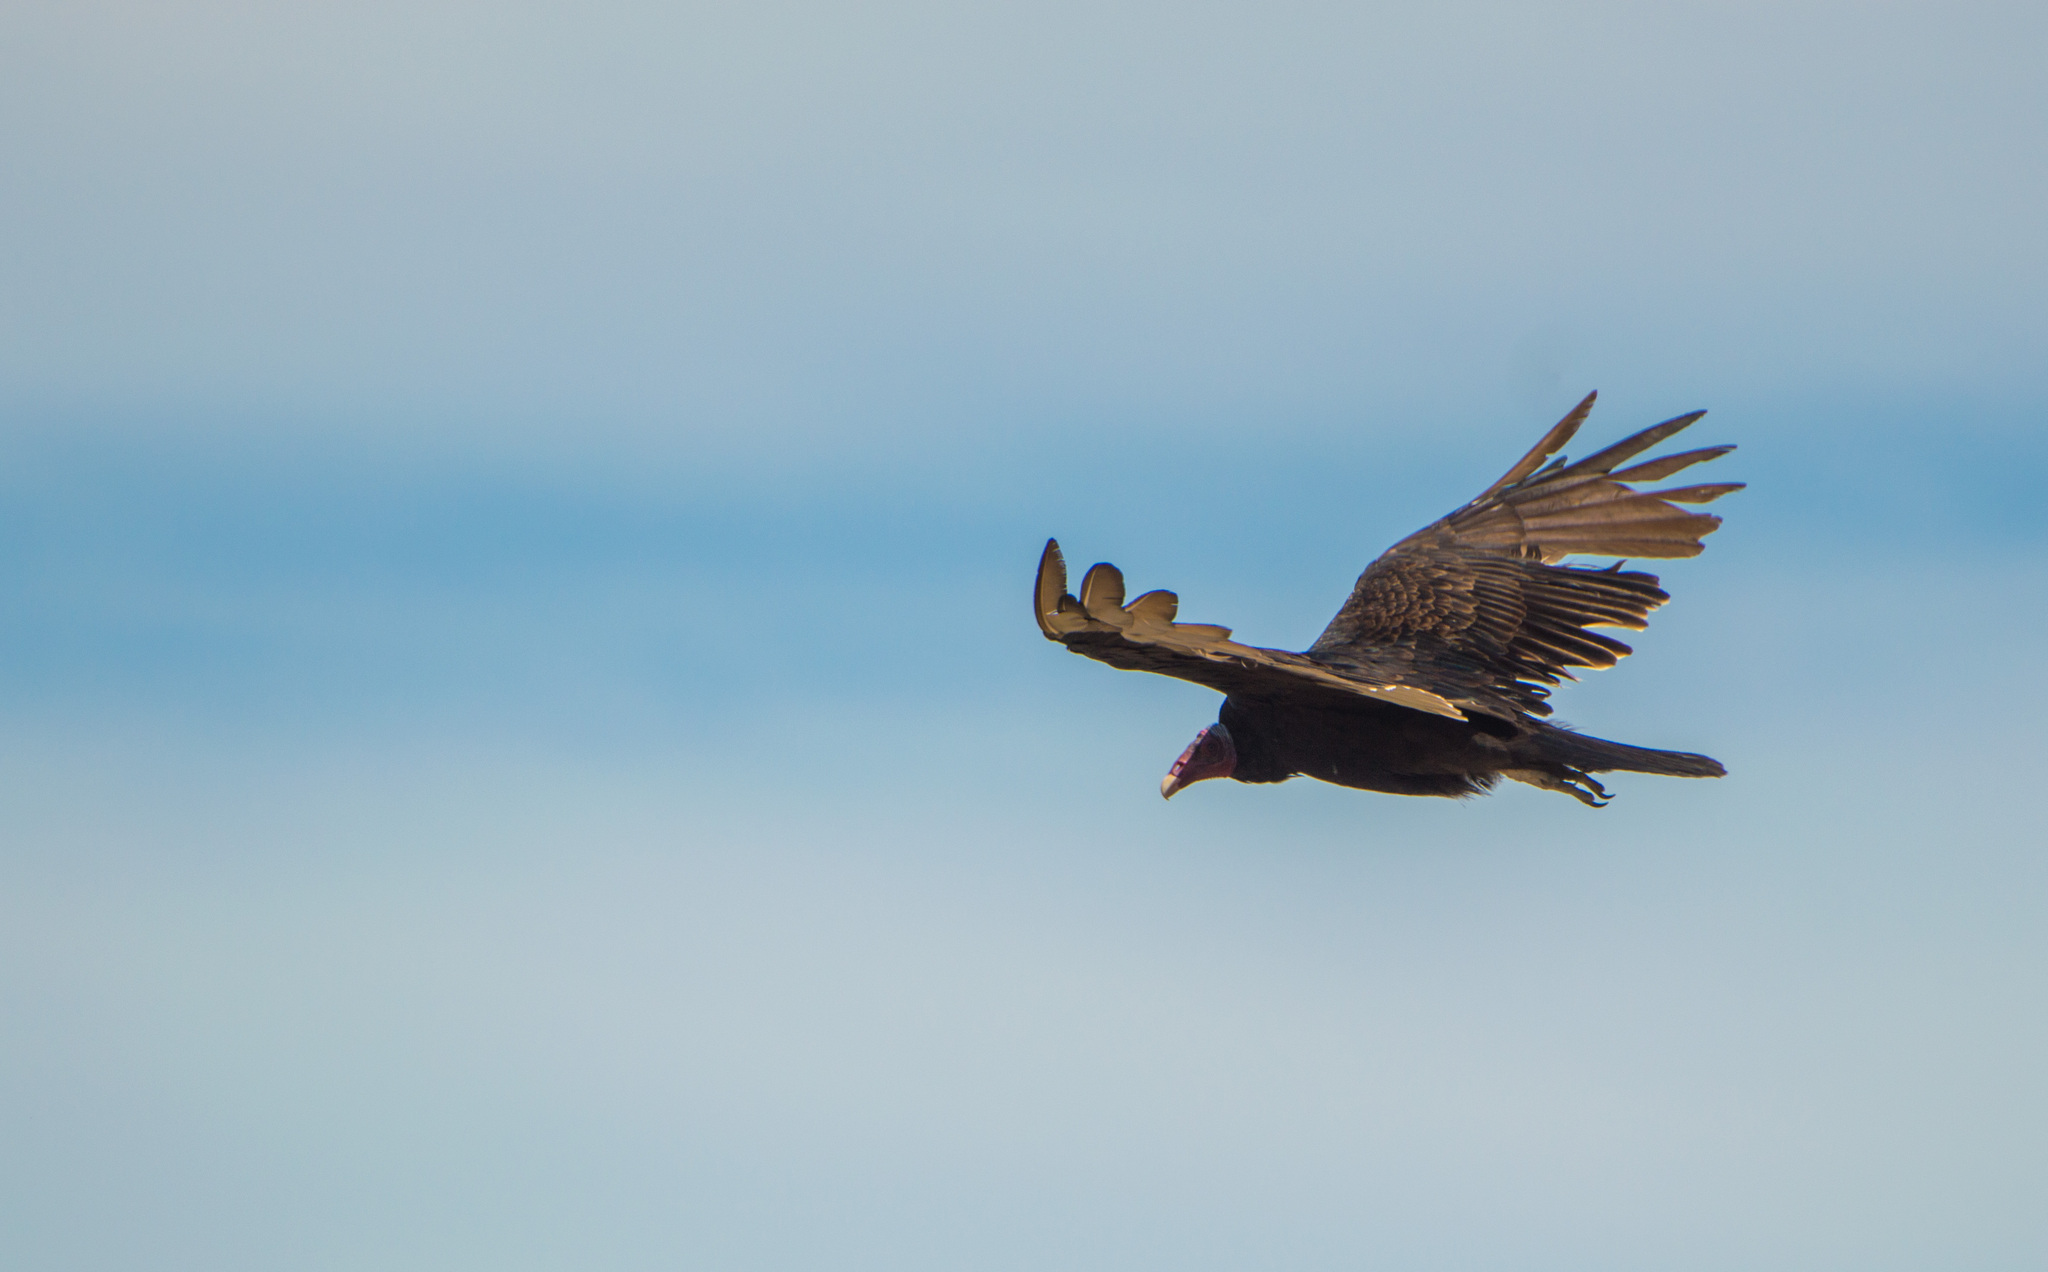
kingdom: Animalia
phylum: Chordata
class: Aves
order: Accipitriformes
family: Cathartidae
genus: Cathartes
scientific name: Cathartes aura
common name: Turkey vulture
